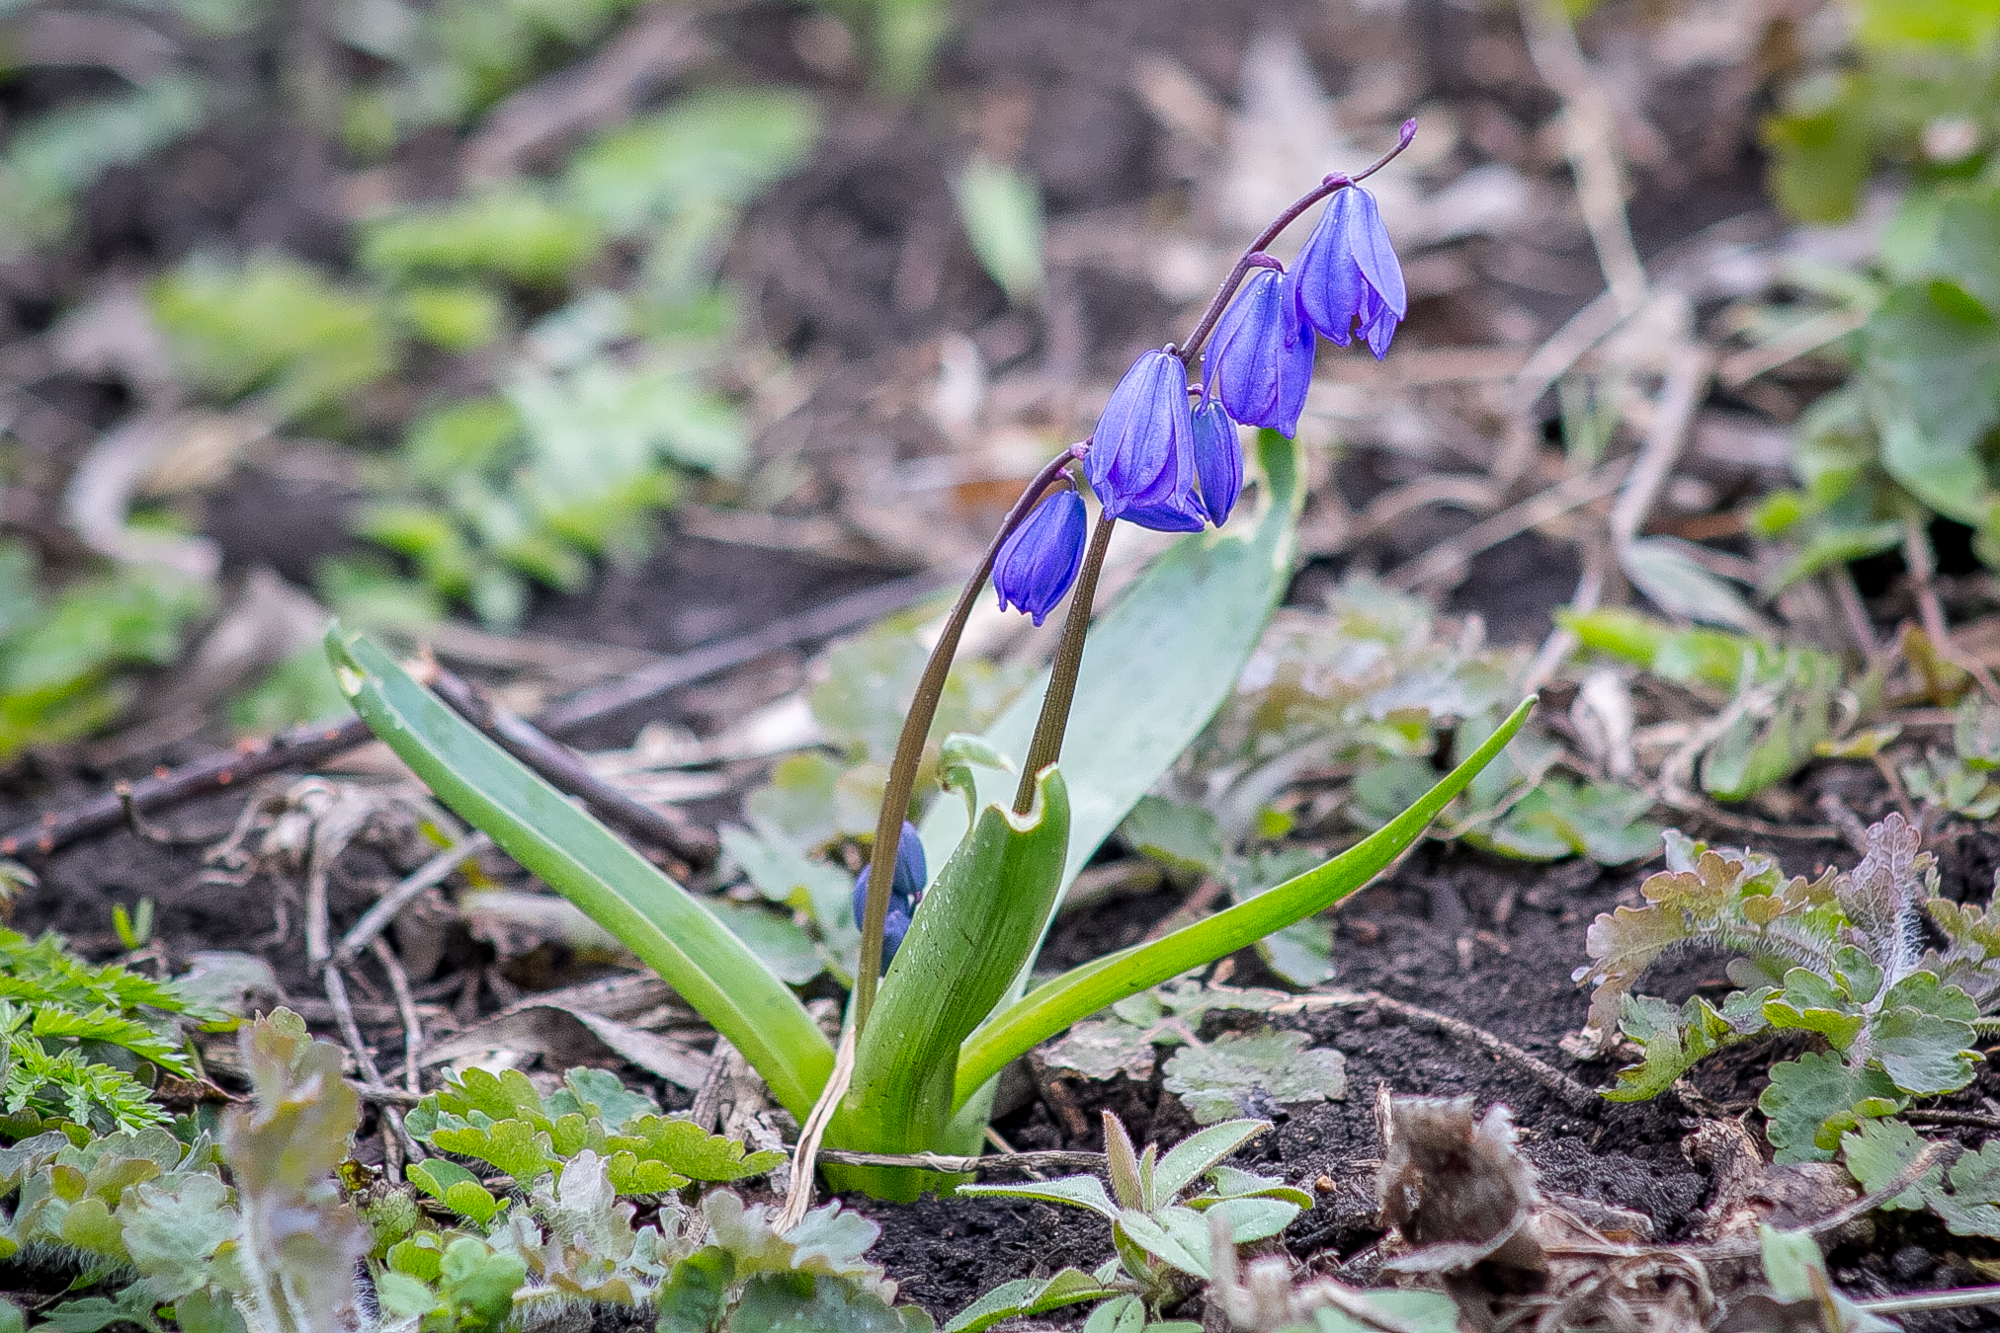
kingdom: Plantae
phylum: Tracheophyta
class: Liliopsida
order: Asparagales
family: Asparagaceae
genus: Scilla
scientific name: Scilla siberica
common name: Siberian squill
